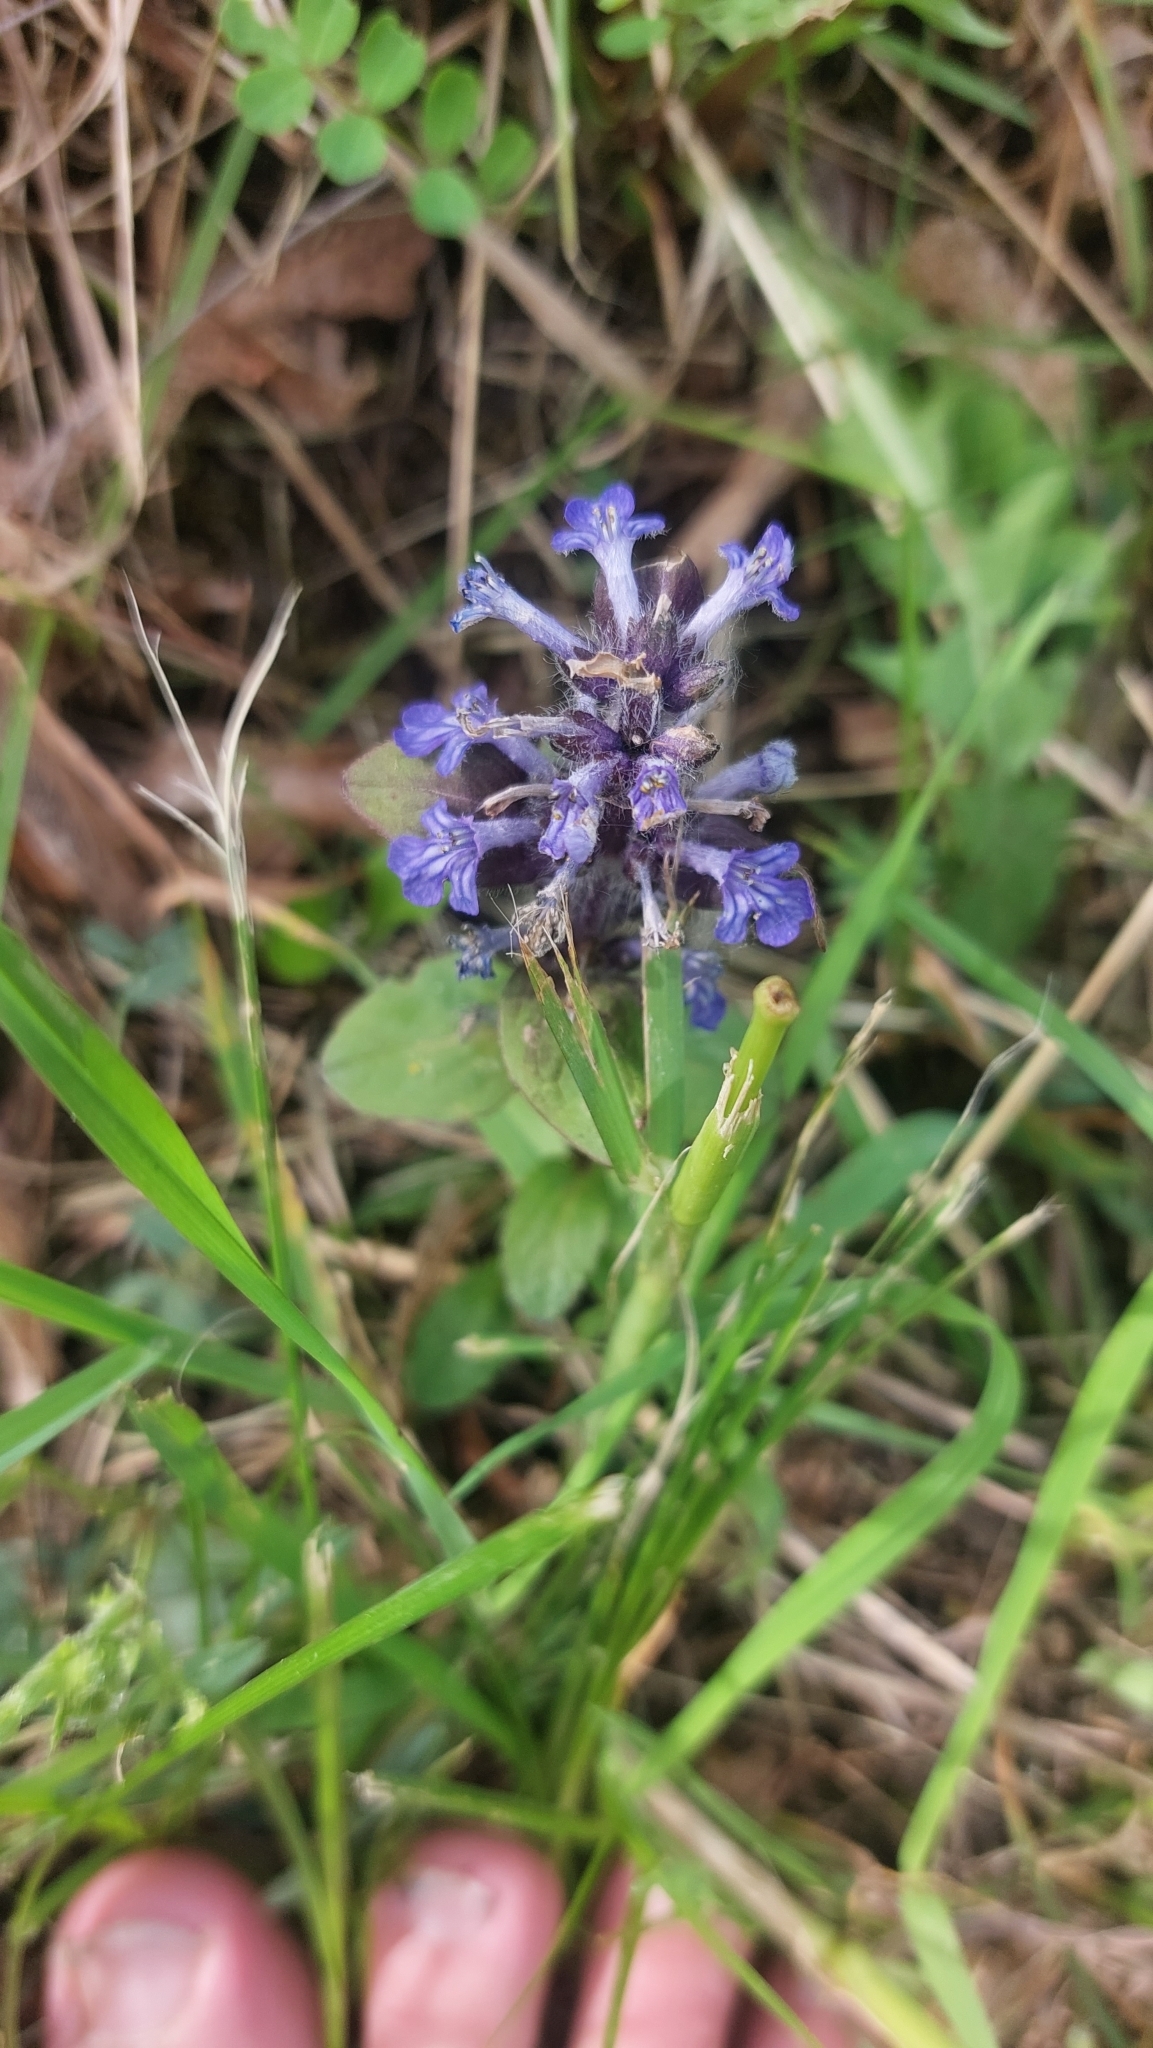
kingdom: Plantae
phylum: Tracheophyta
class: Magnoliopsida
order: Lamiales
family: Lamiaceae
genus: Ajuga
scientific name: Ajuga reptans
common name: Bugle
